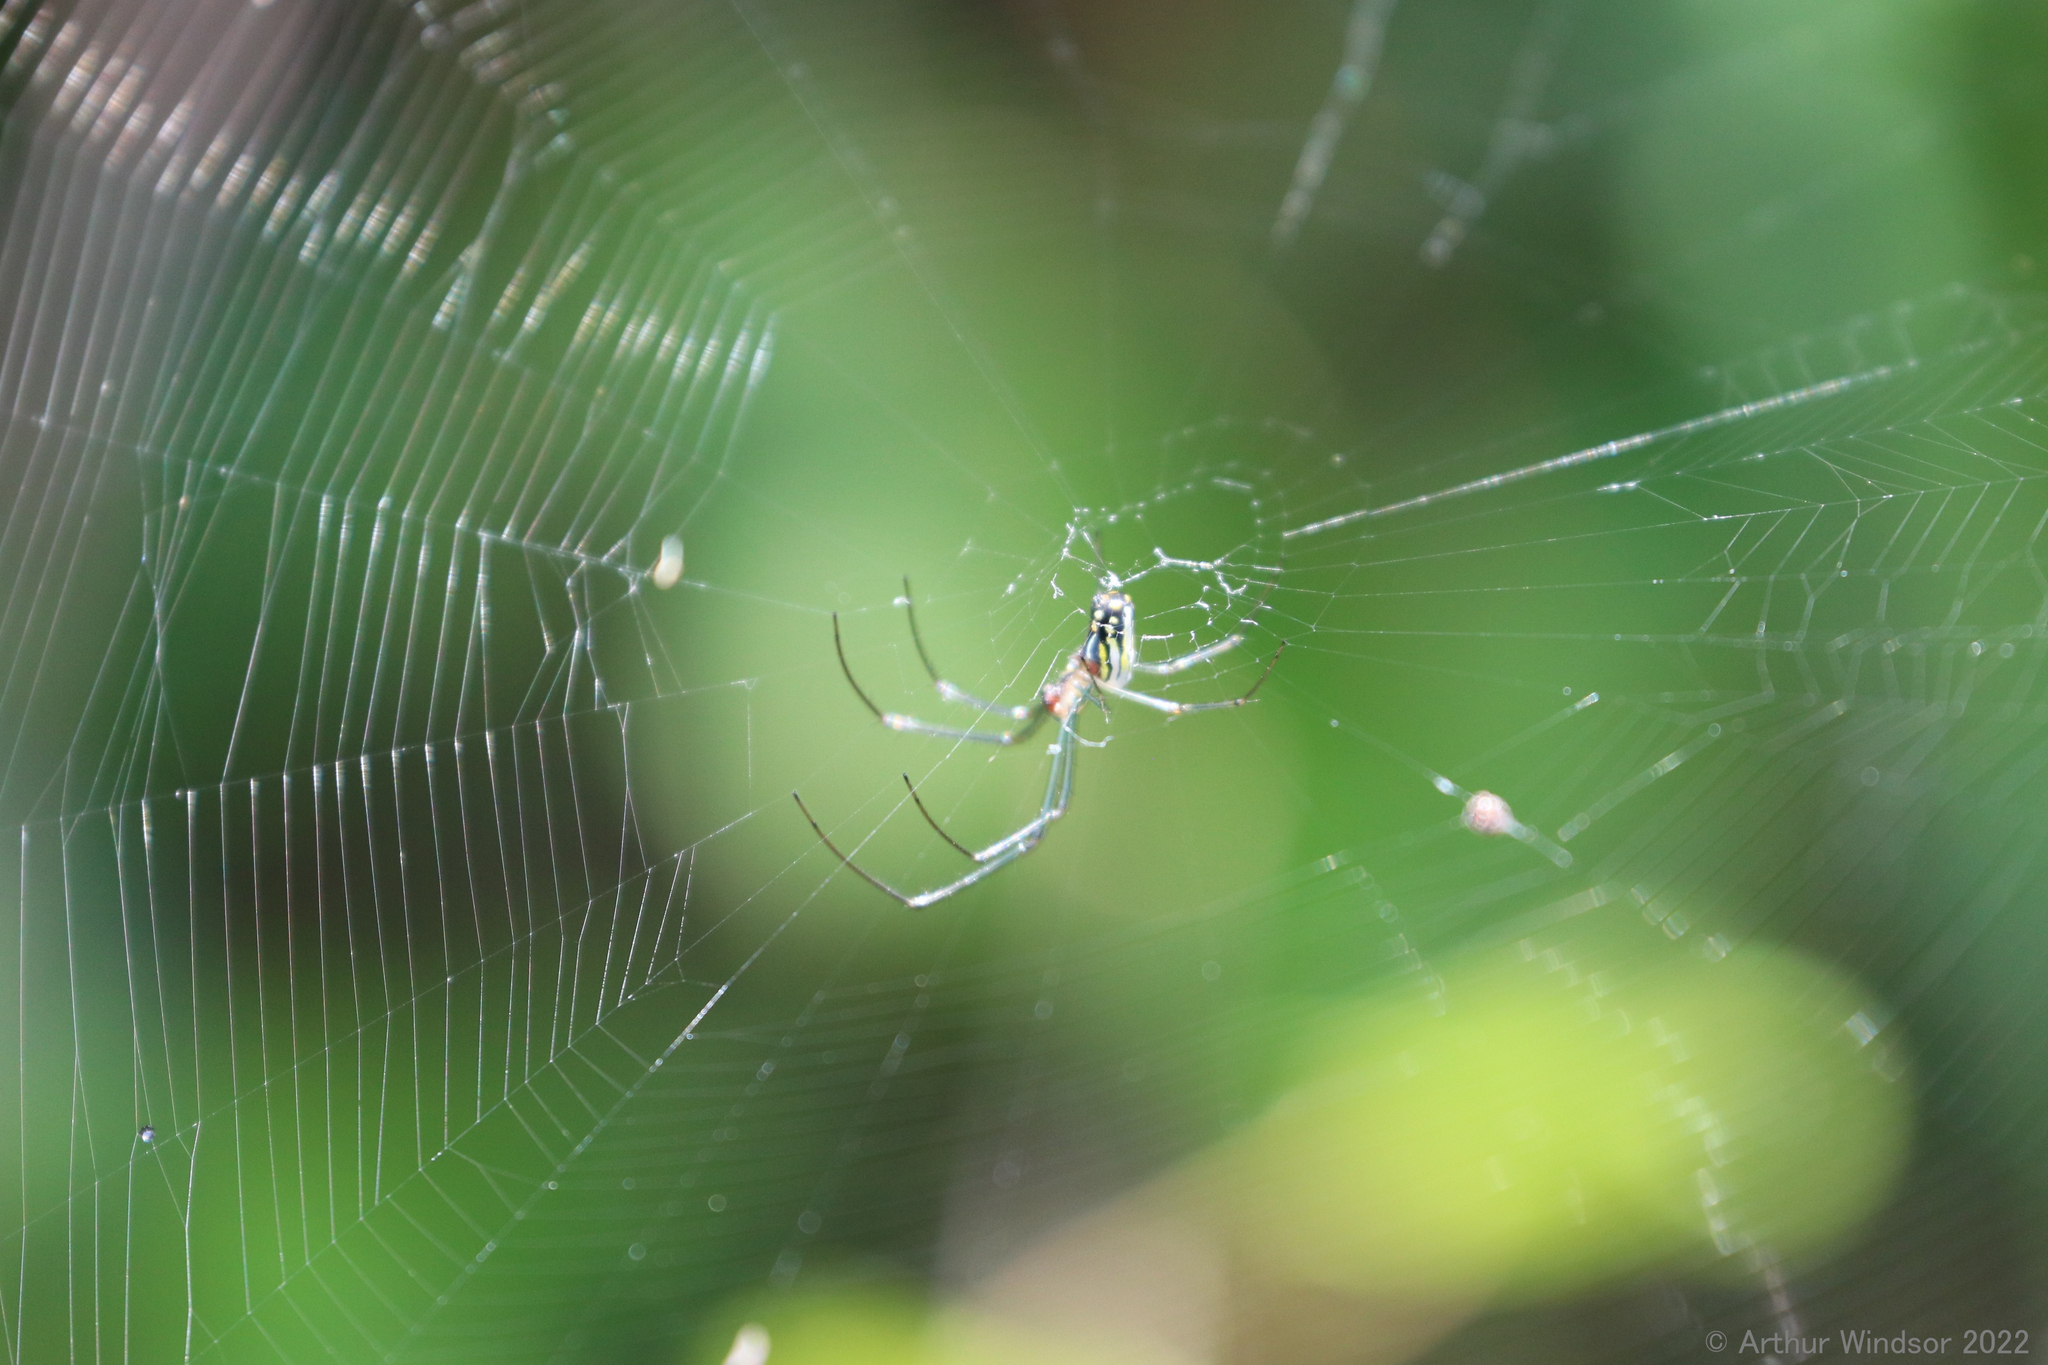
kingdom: Animalia
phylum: Arthropoda
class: Arachnida
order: Araneae
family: Tetragnathidae
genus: Leucauge
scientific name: Leucauge argyra
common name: Longjawed orb weavers
